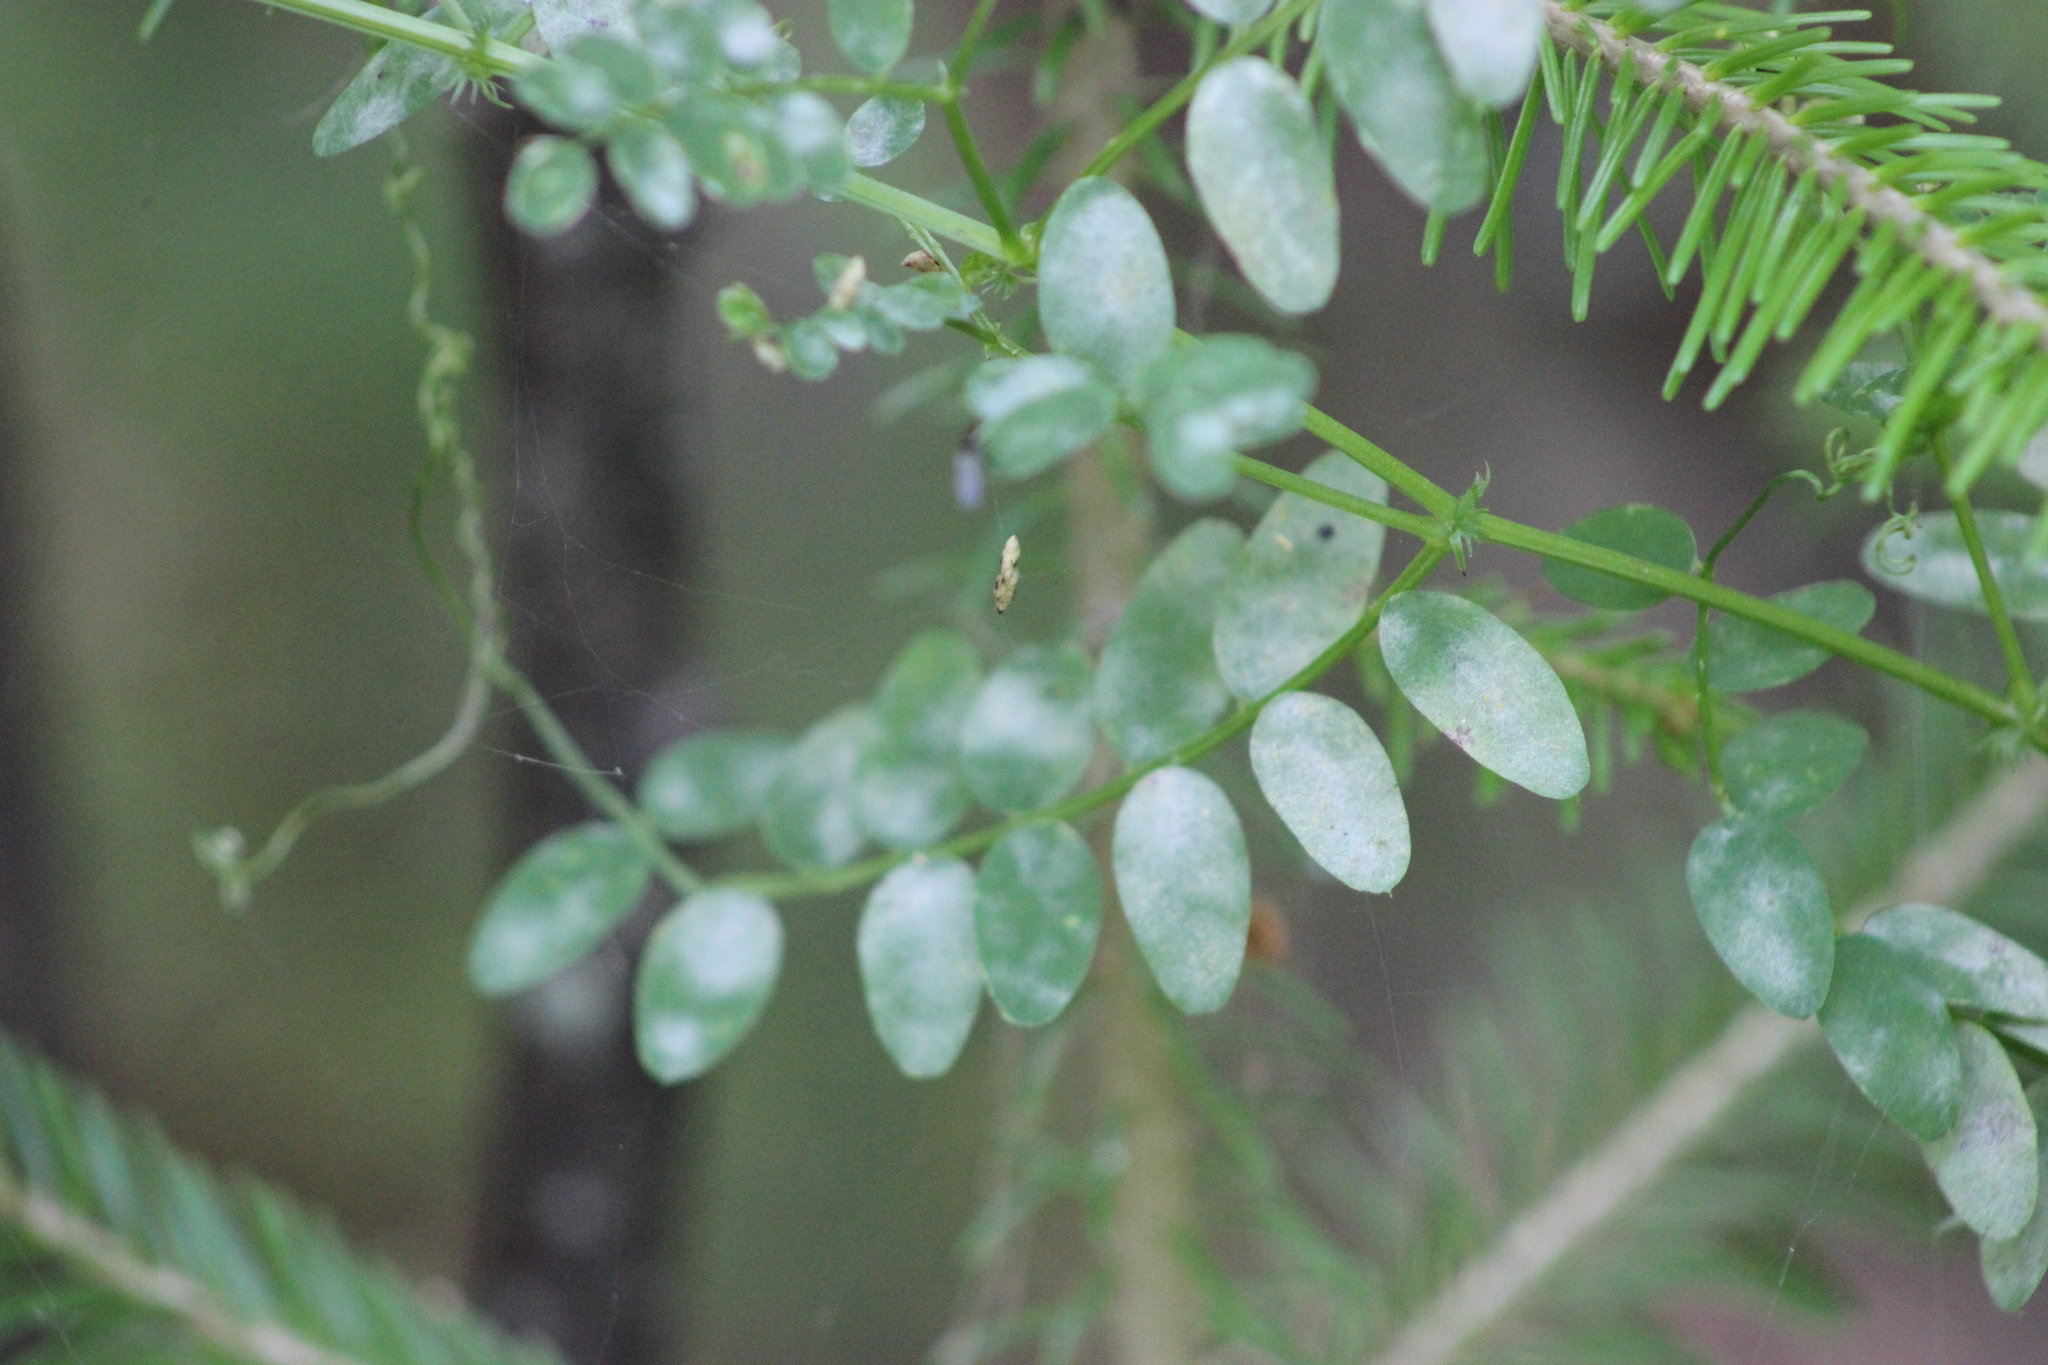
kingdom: Plantae
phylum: Tracheophyta
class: Magnoliopsida
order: Fabales
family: Fabaceae
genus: Vicia
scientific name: Vicia sylvatica
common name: Wood vetch
